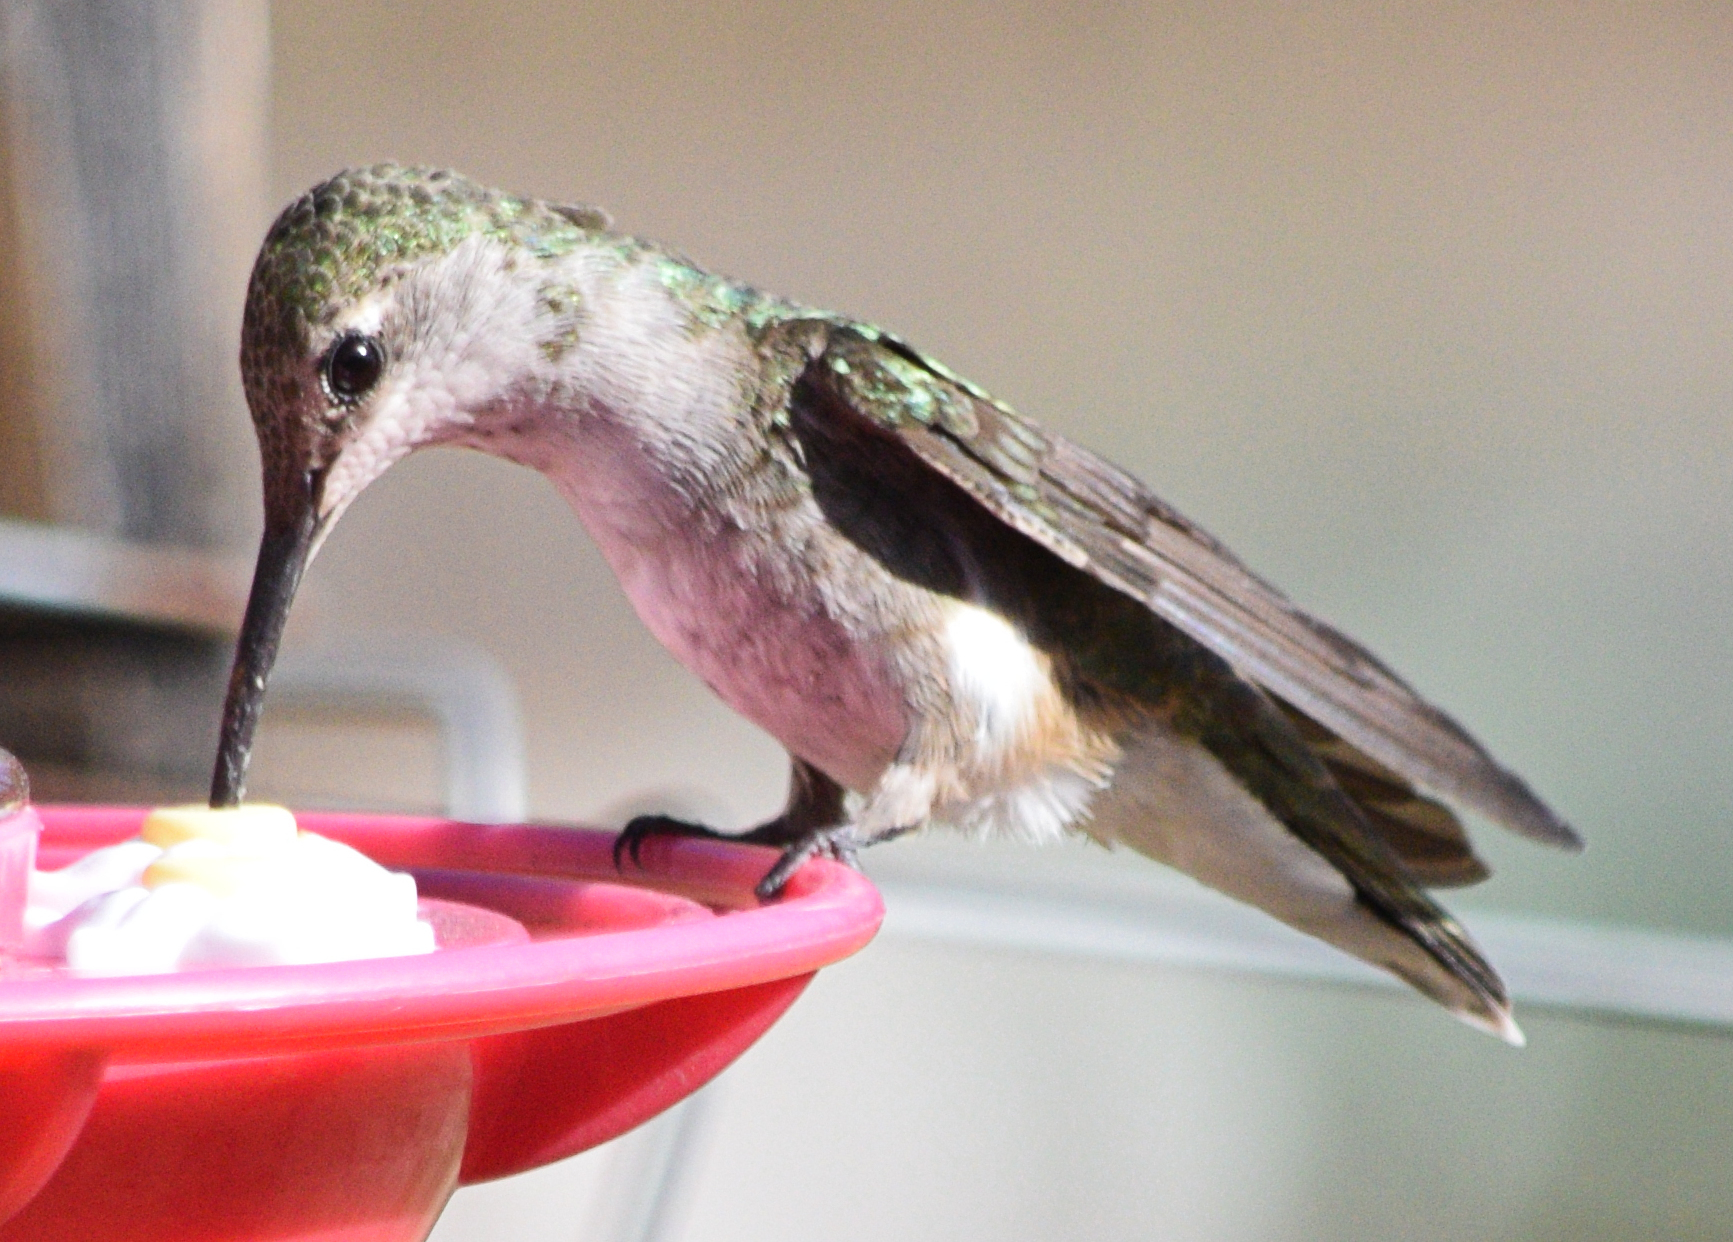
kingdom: Animalia
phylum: Chordata
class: Aves
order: Apodiformes
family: Trochilidae
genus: Archilochus
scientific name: Archilochus alexandri
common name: Black-chinned hummingbird
